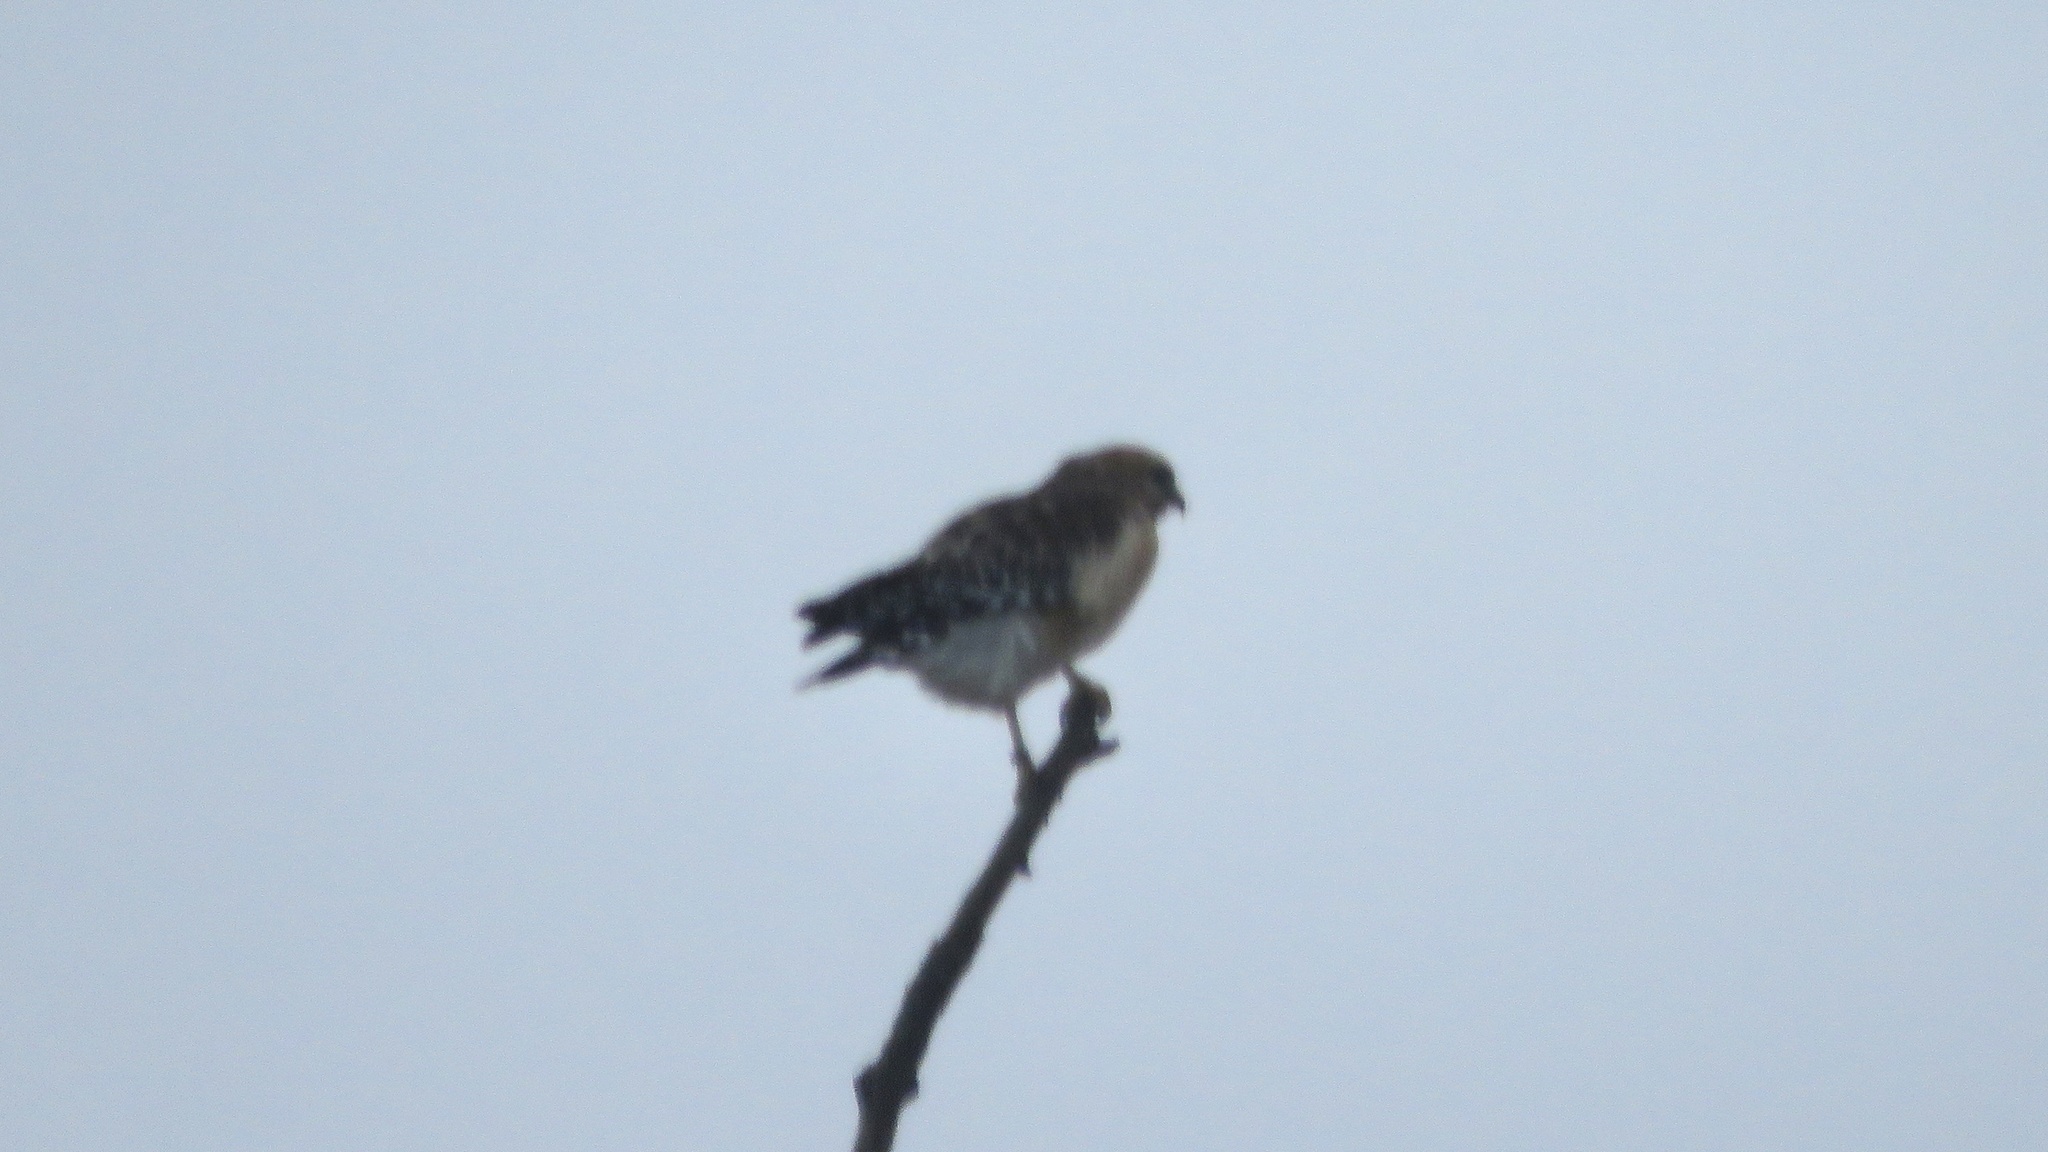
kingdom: Animalia
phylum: Chordata
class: Aves
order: Accipitriformes
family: Accipitridae
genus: Buteo
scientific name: Buteo lineatus
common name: Red-shouldered hawk
